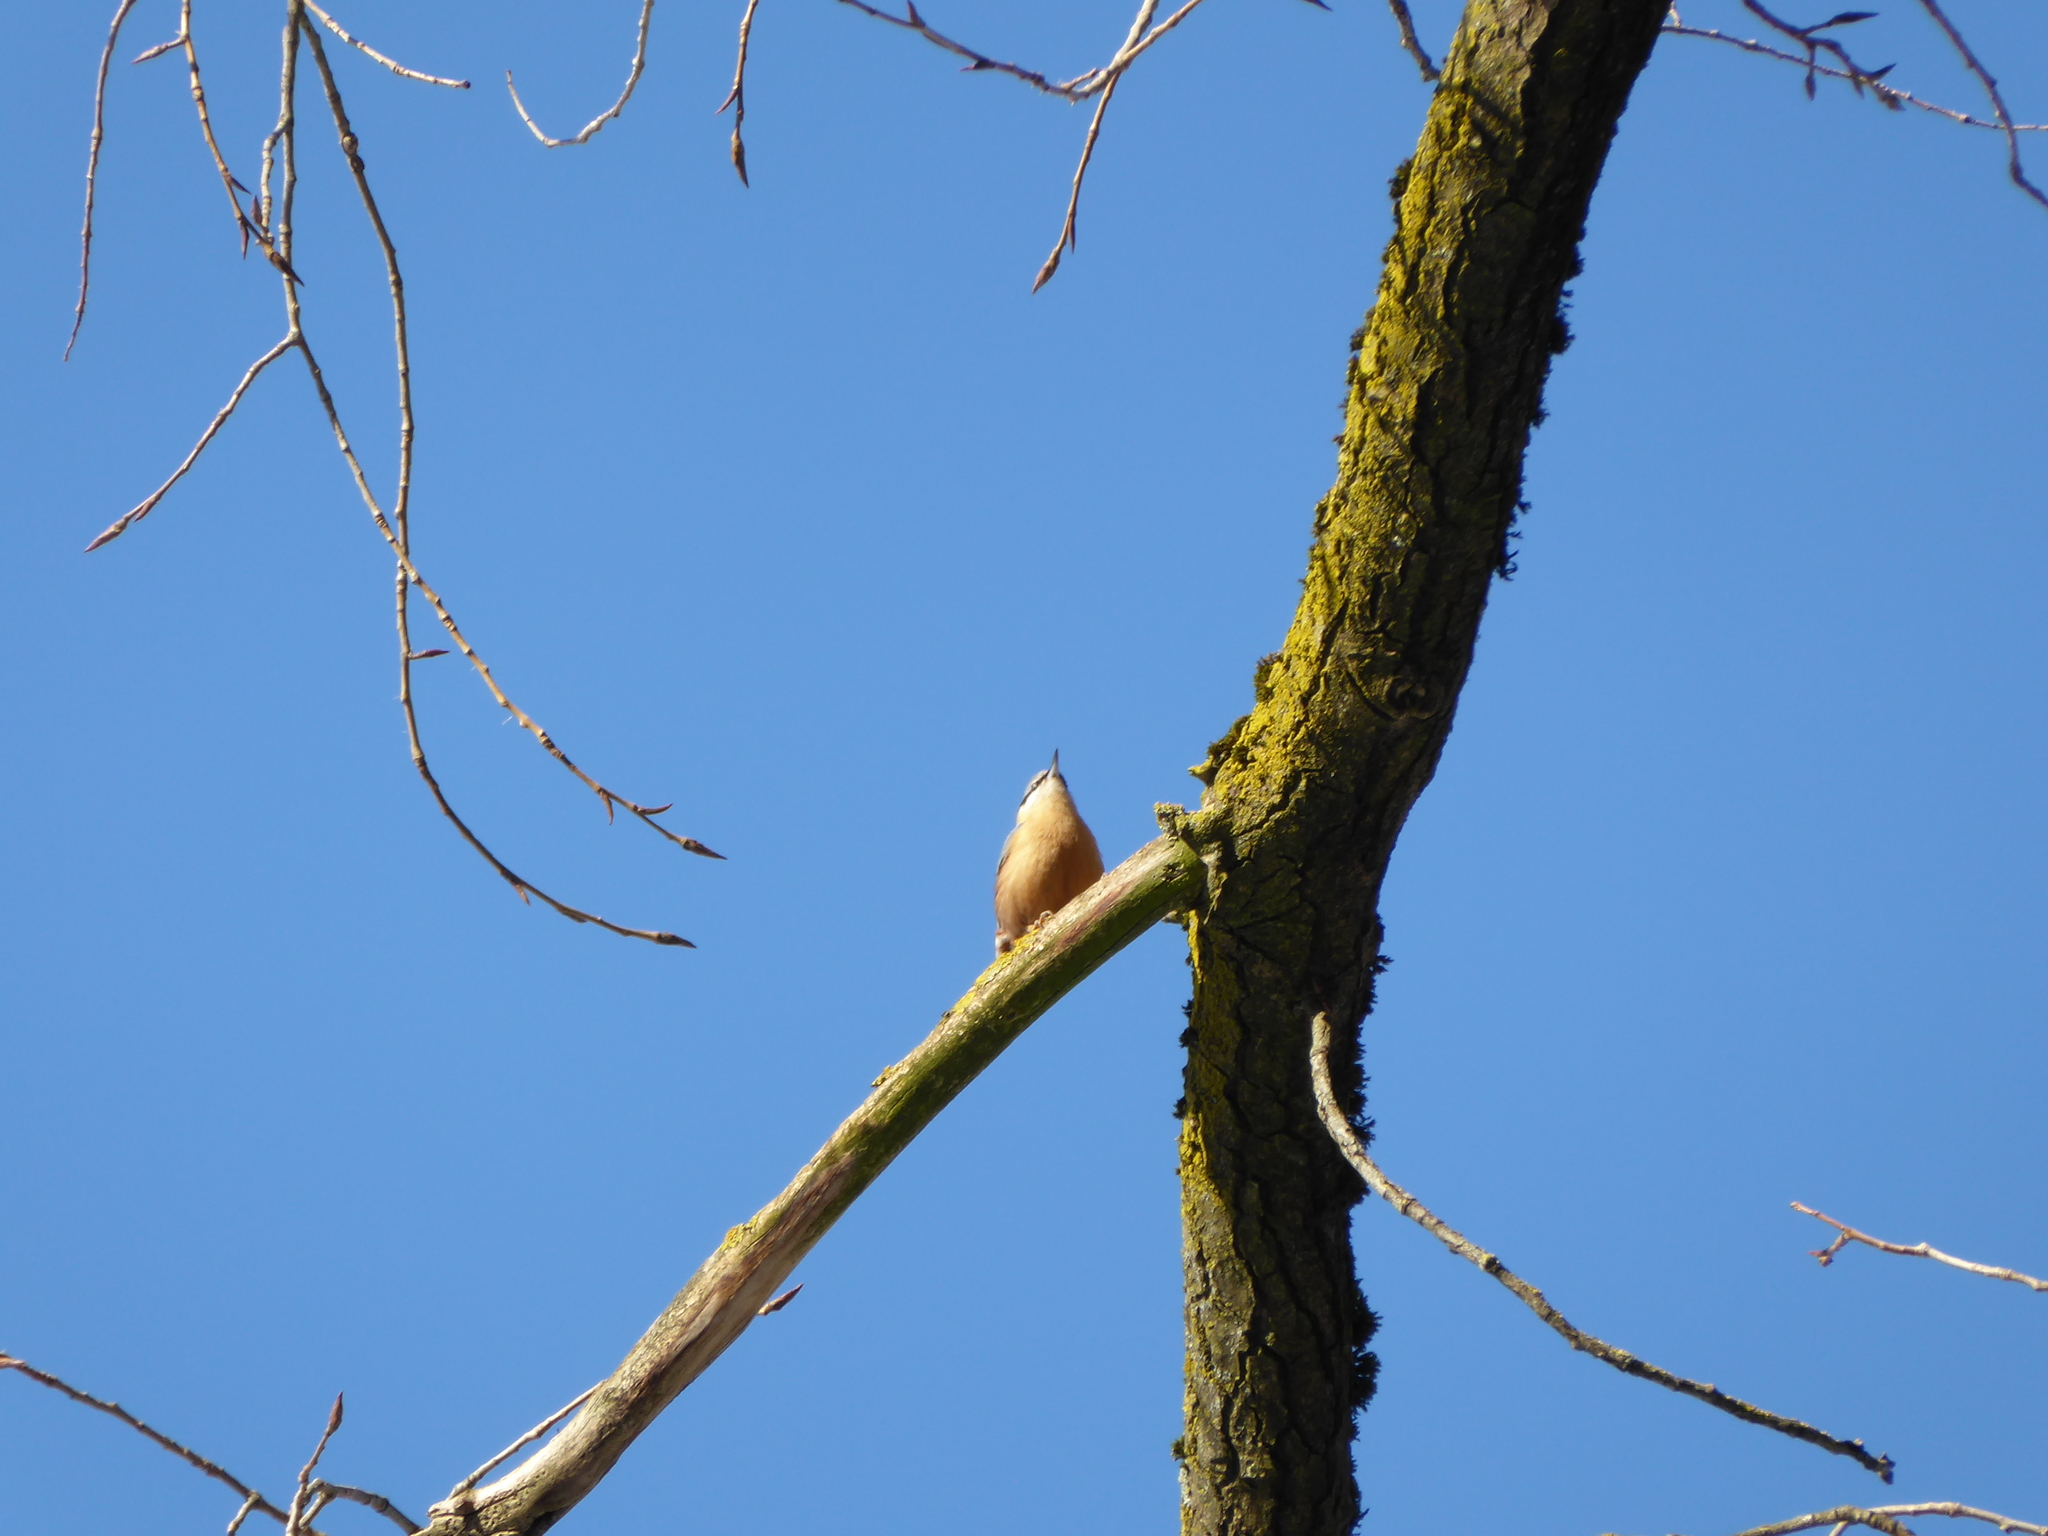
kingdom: Animalia
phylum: Chordata
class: Aves
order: Passeriformes
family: Sittidae
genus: Sitta
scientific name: Sitta europaea
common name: Eurasian nuthatch
